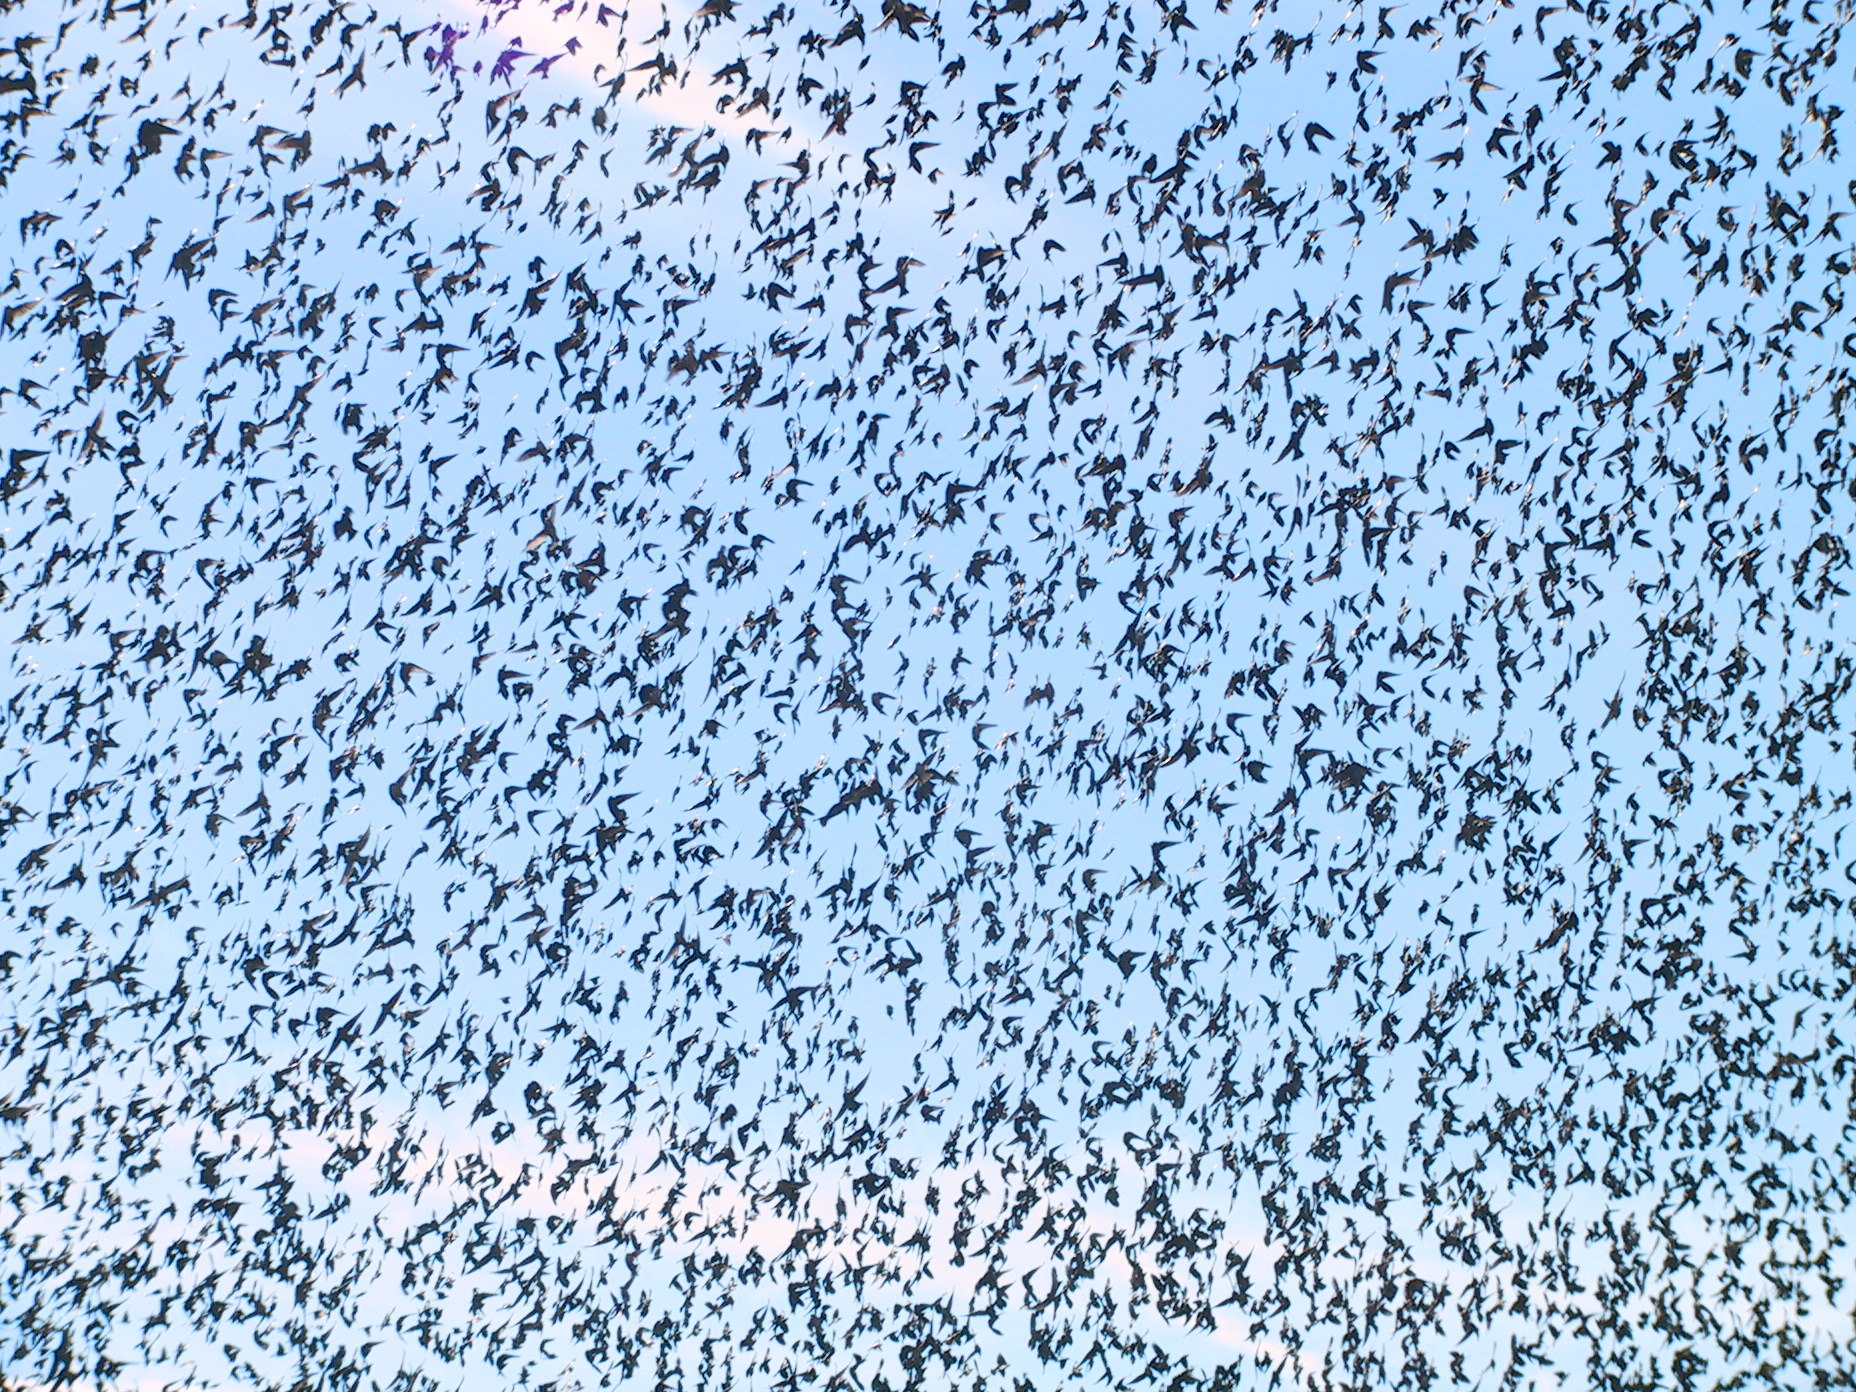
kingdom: Animalia
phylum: Chordata
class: Aves
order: Passeriformes
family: Icteridae
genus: Molothrus
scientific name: Molothrus ater
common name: Brown-headed cowbird
